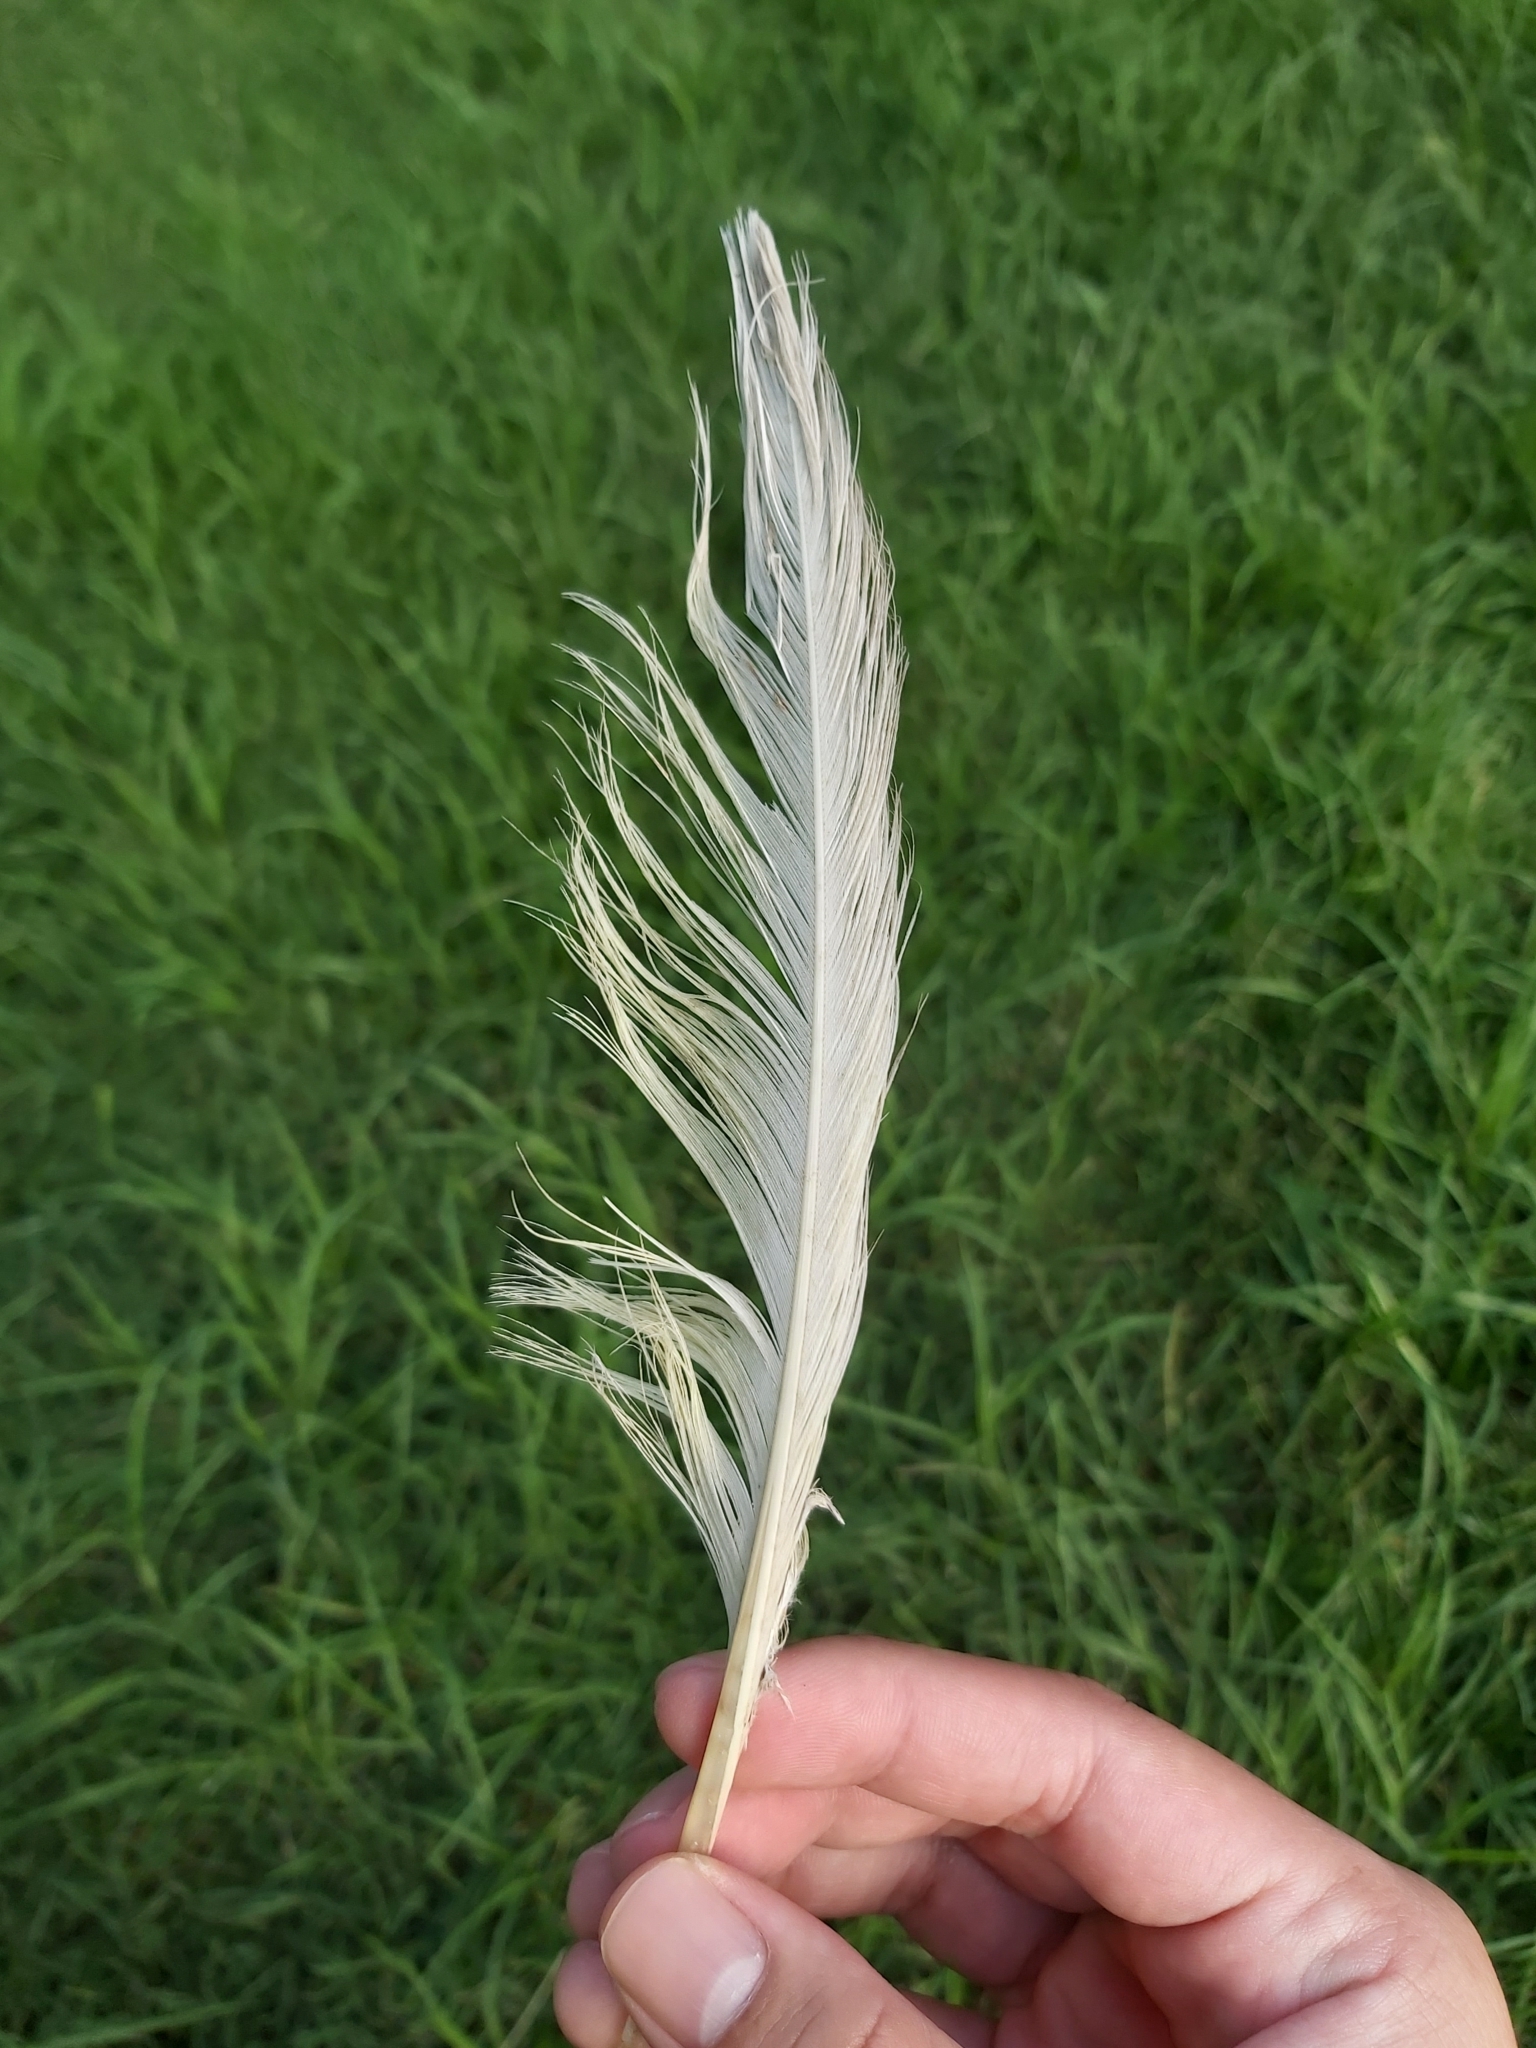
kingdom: Animalia
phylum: Chordata
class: Aves
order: Psittaciformes
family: Psittacidae
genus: Cacatua
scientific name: Cacatua galerita
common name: Sulphur-crested cockatoo
